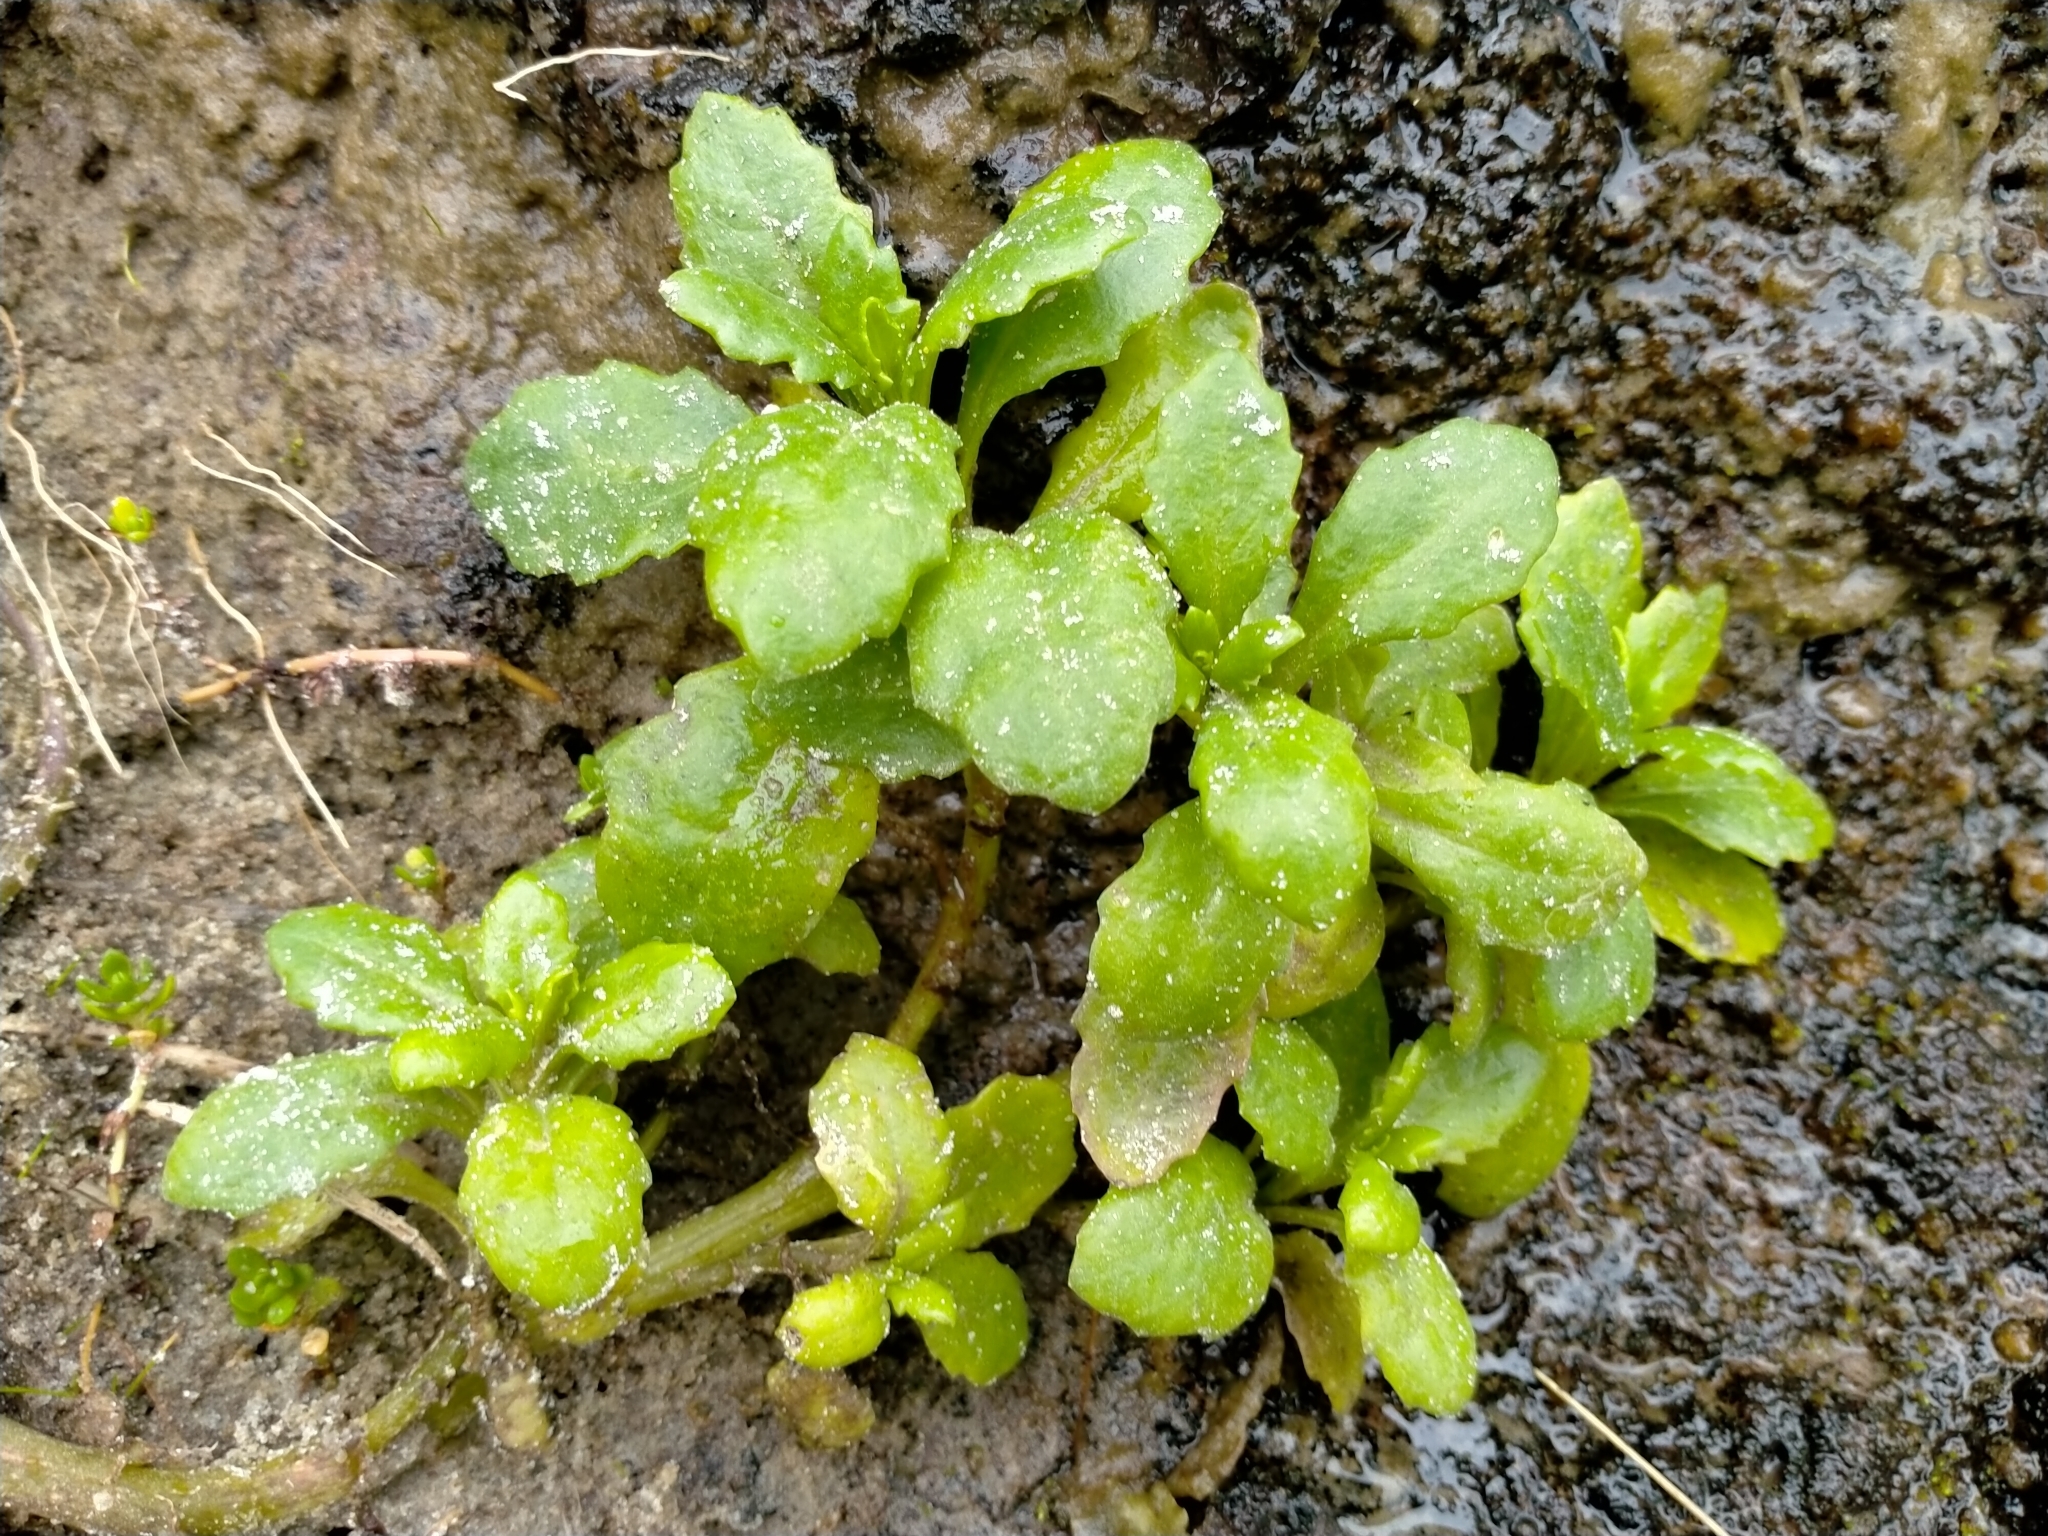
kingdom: Plantae
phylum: Tracheophyta
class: Magnoliopsida
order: Asterales
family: Asteraceae
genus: Senecio
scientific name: Senecio matatini
